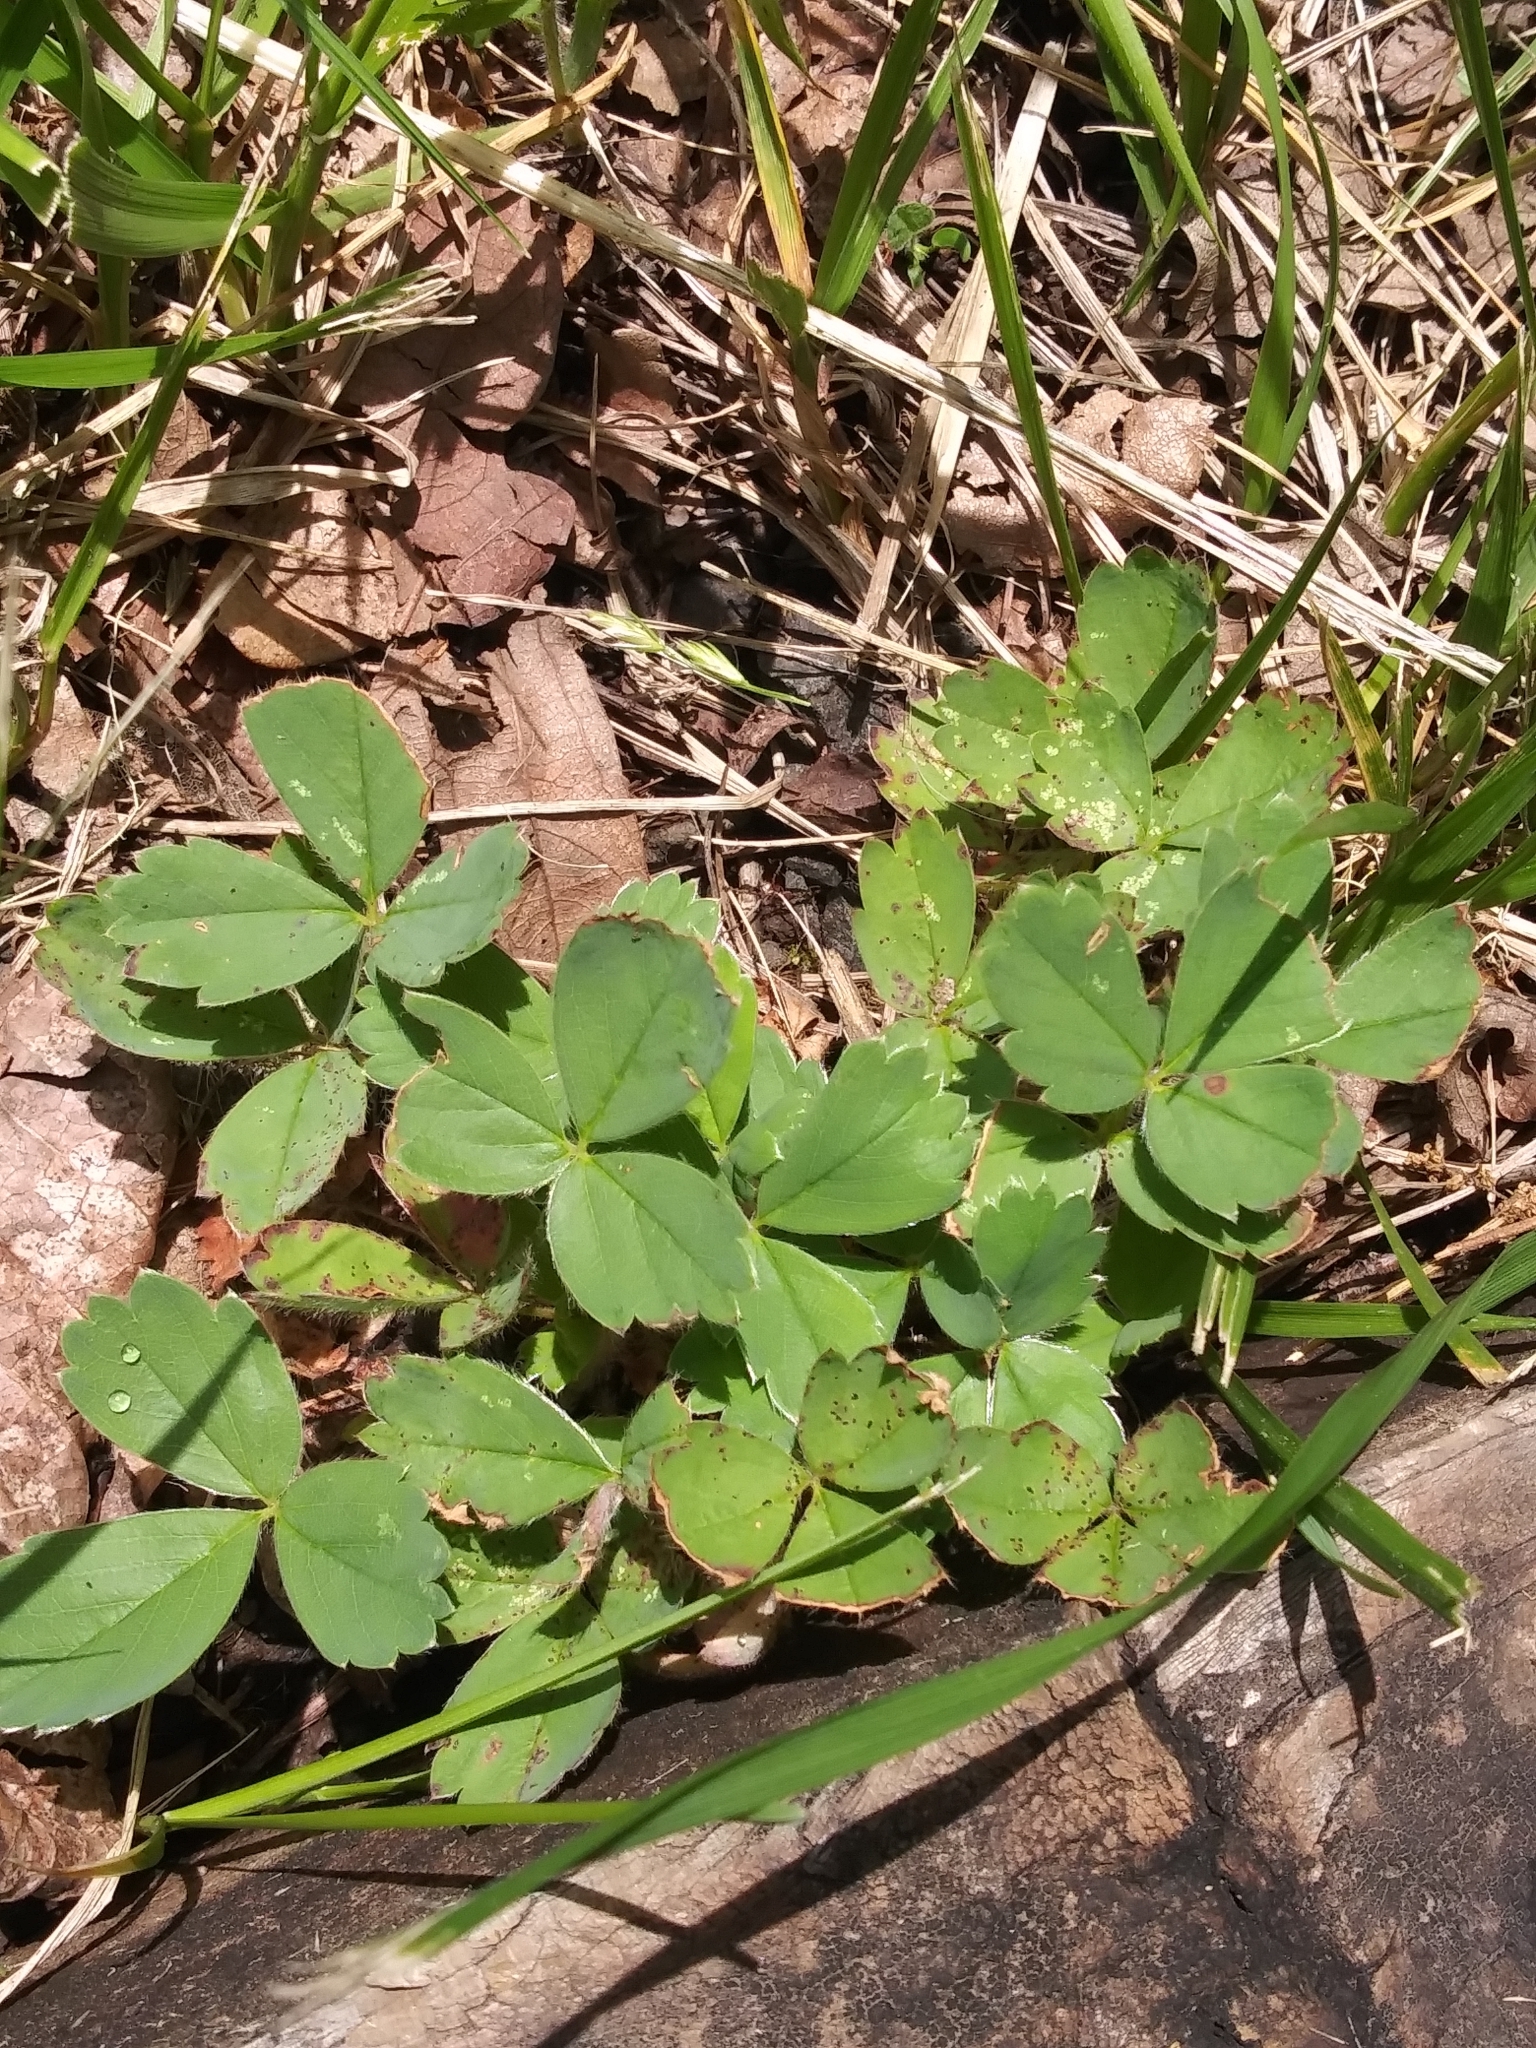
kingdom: Plantae
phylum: Tracheophyta
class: Magnoliopsida
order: Rosales
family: Rosaceae
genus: Fragaria
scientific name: Fragaria virginiana
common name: Thickleaved wild strawberry
